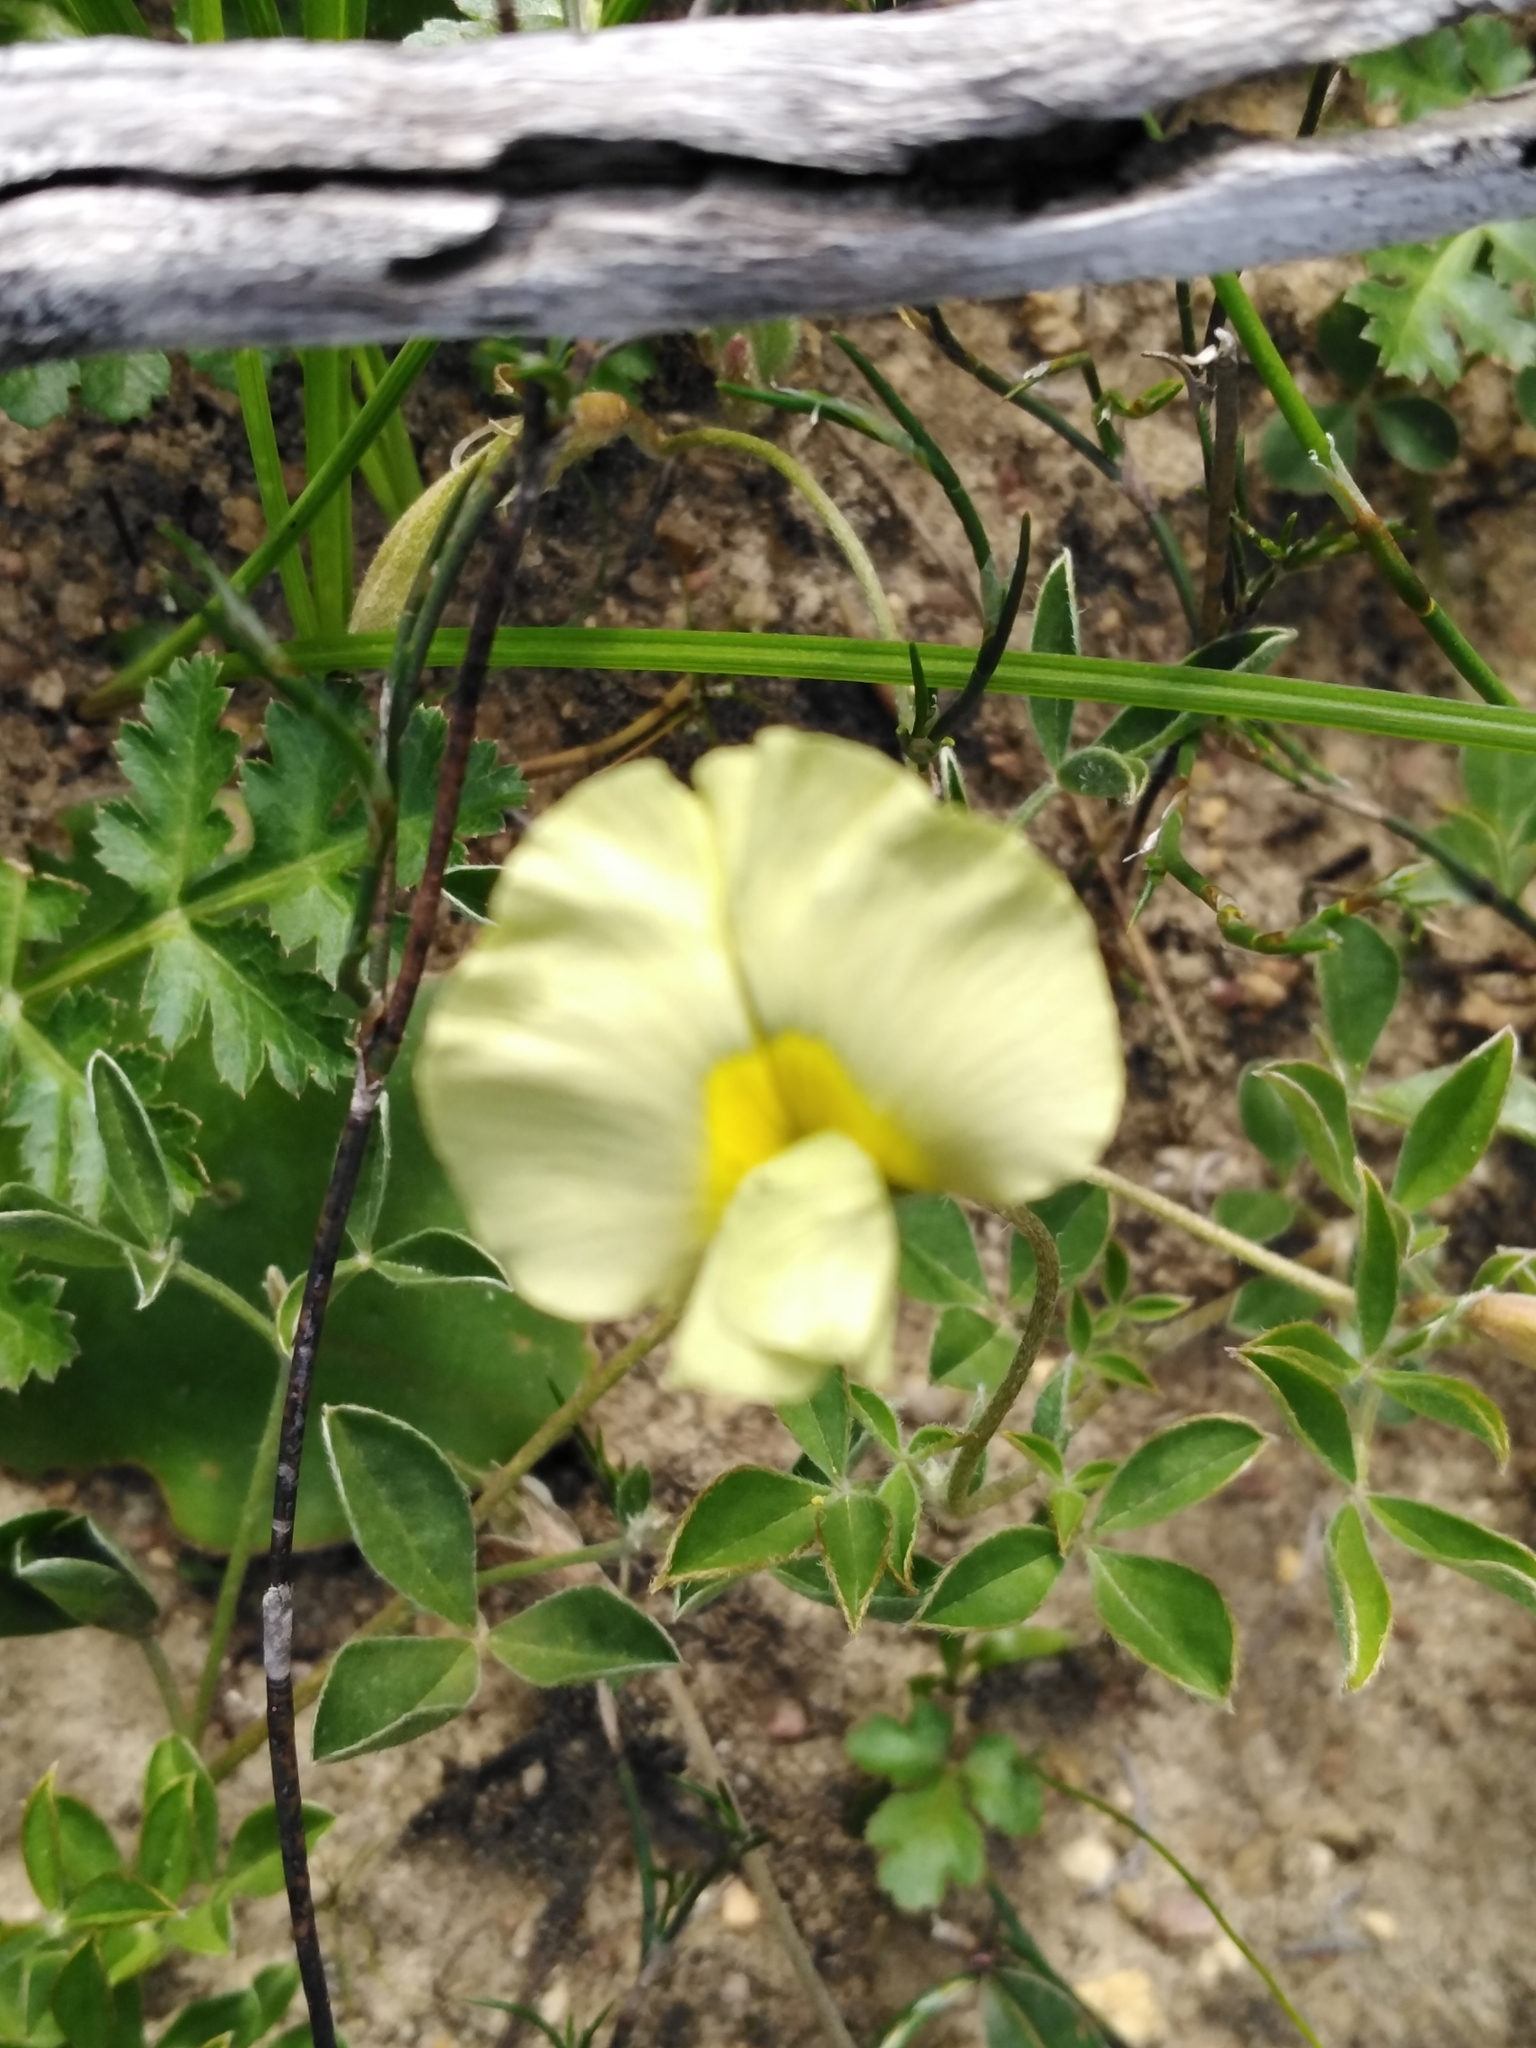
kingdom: Plantae
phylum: Tracheophyta
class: Magnoliopsida
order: Fabales
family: Fabaceae
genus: Lotononis
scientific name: Lotononis prostrata
